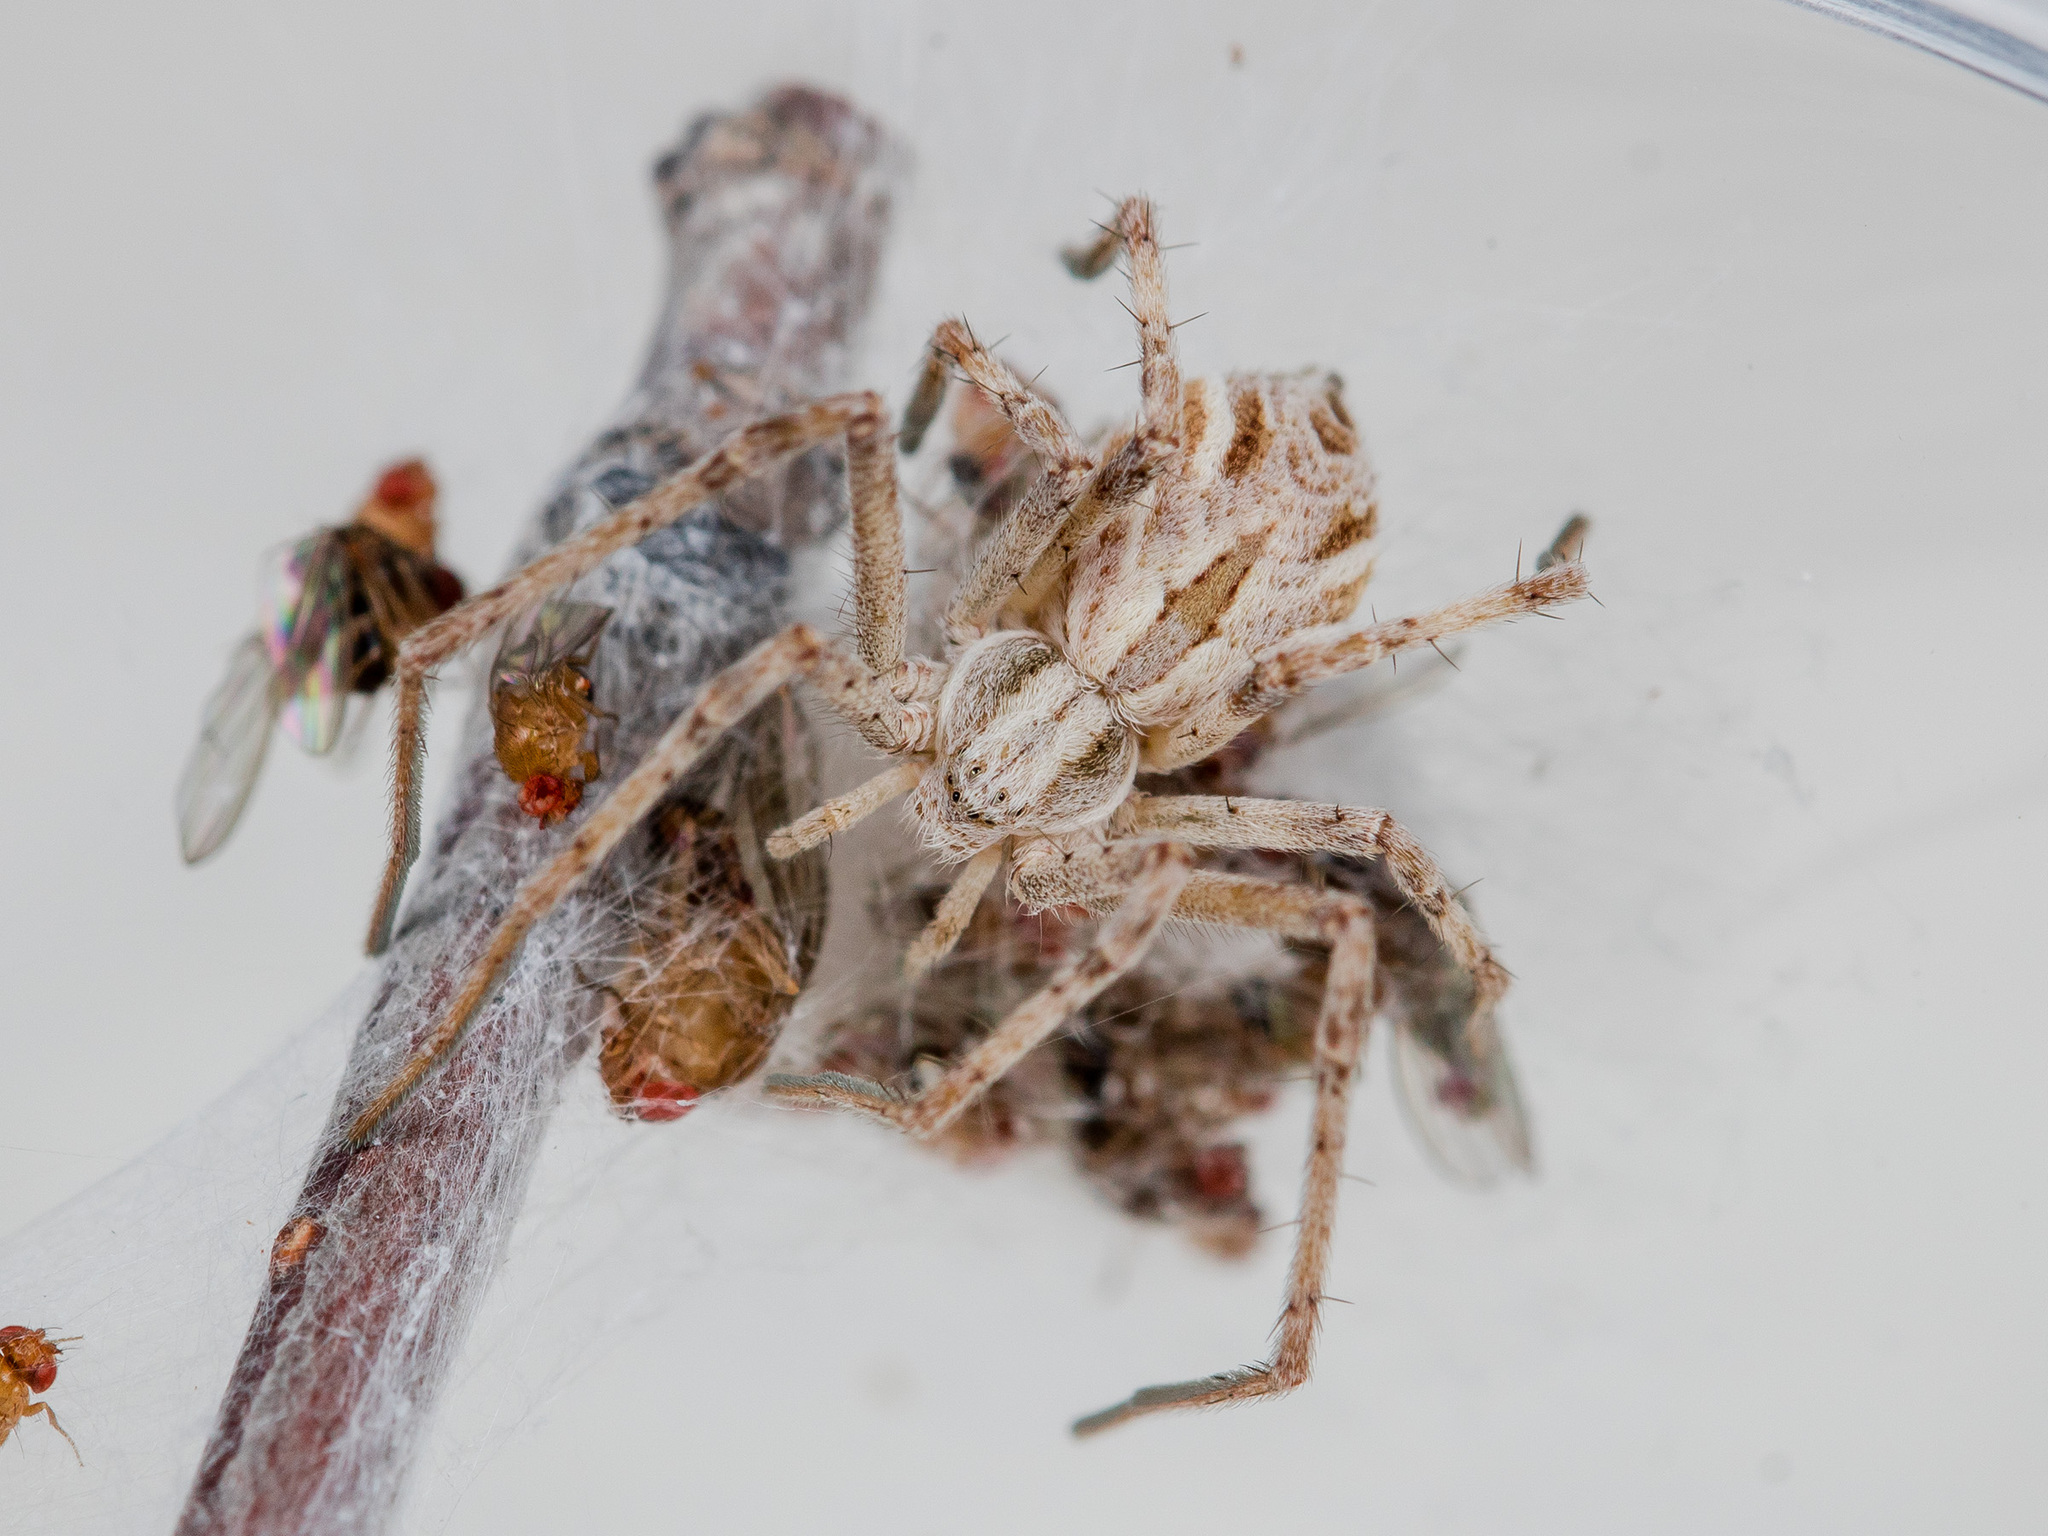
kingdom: Animalia
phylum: Arthropoda
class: Arachnida
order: Araneae
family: Philodromidae
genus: Rhysodromus
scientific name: Rhysodromus ablegminus
